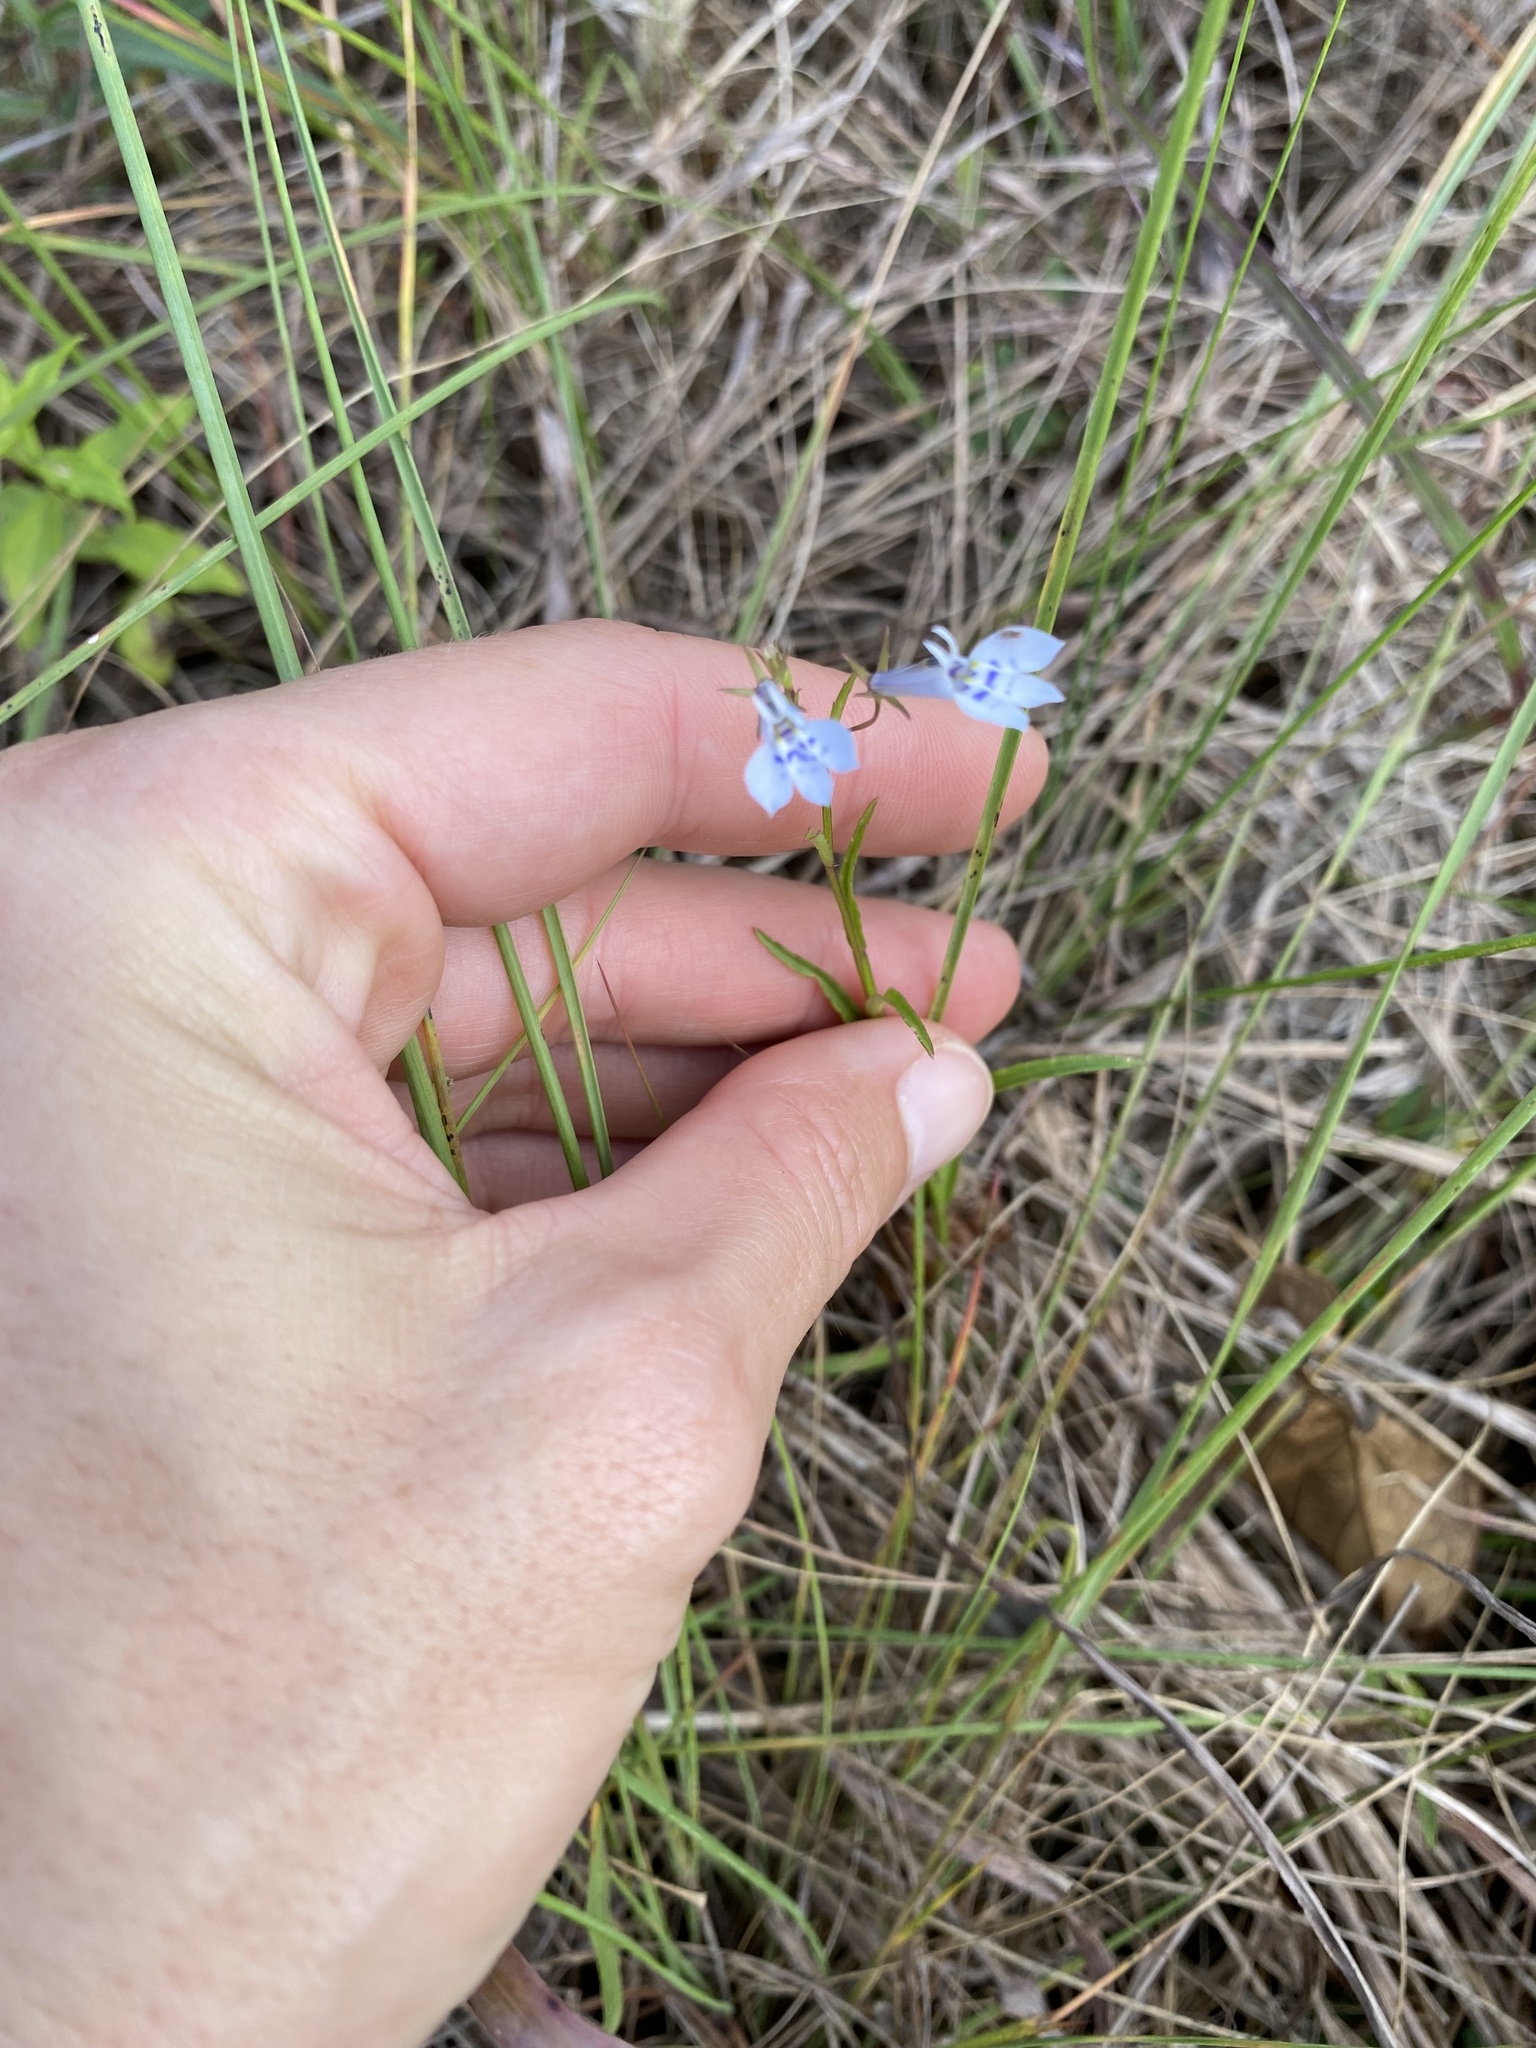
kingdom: Plantae
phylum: Tracheophyta
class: Magnoliopsida
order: Asterales
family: Campanulaceae
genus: Lobelia
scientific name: Lobelia flaccida
